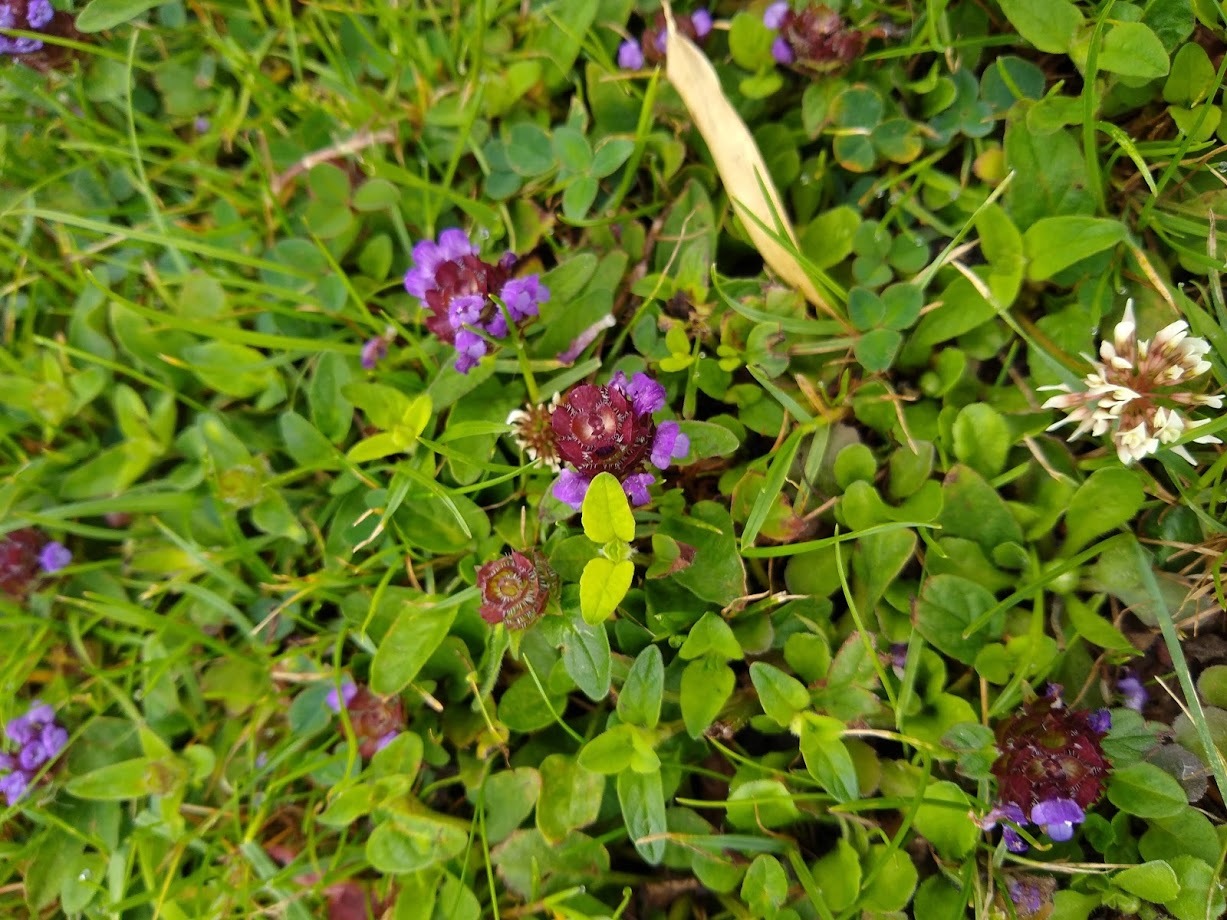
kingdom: Plantae
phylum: Tracheophyta
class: Magnoliopsida
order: Lamiales
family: Lamiaceae
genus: Prunella
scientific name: Prunella vulgaris
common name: Heal-all
